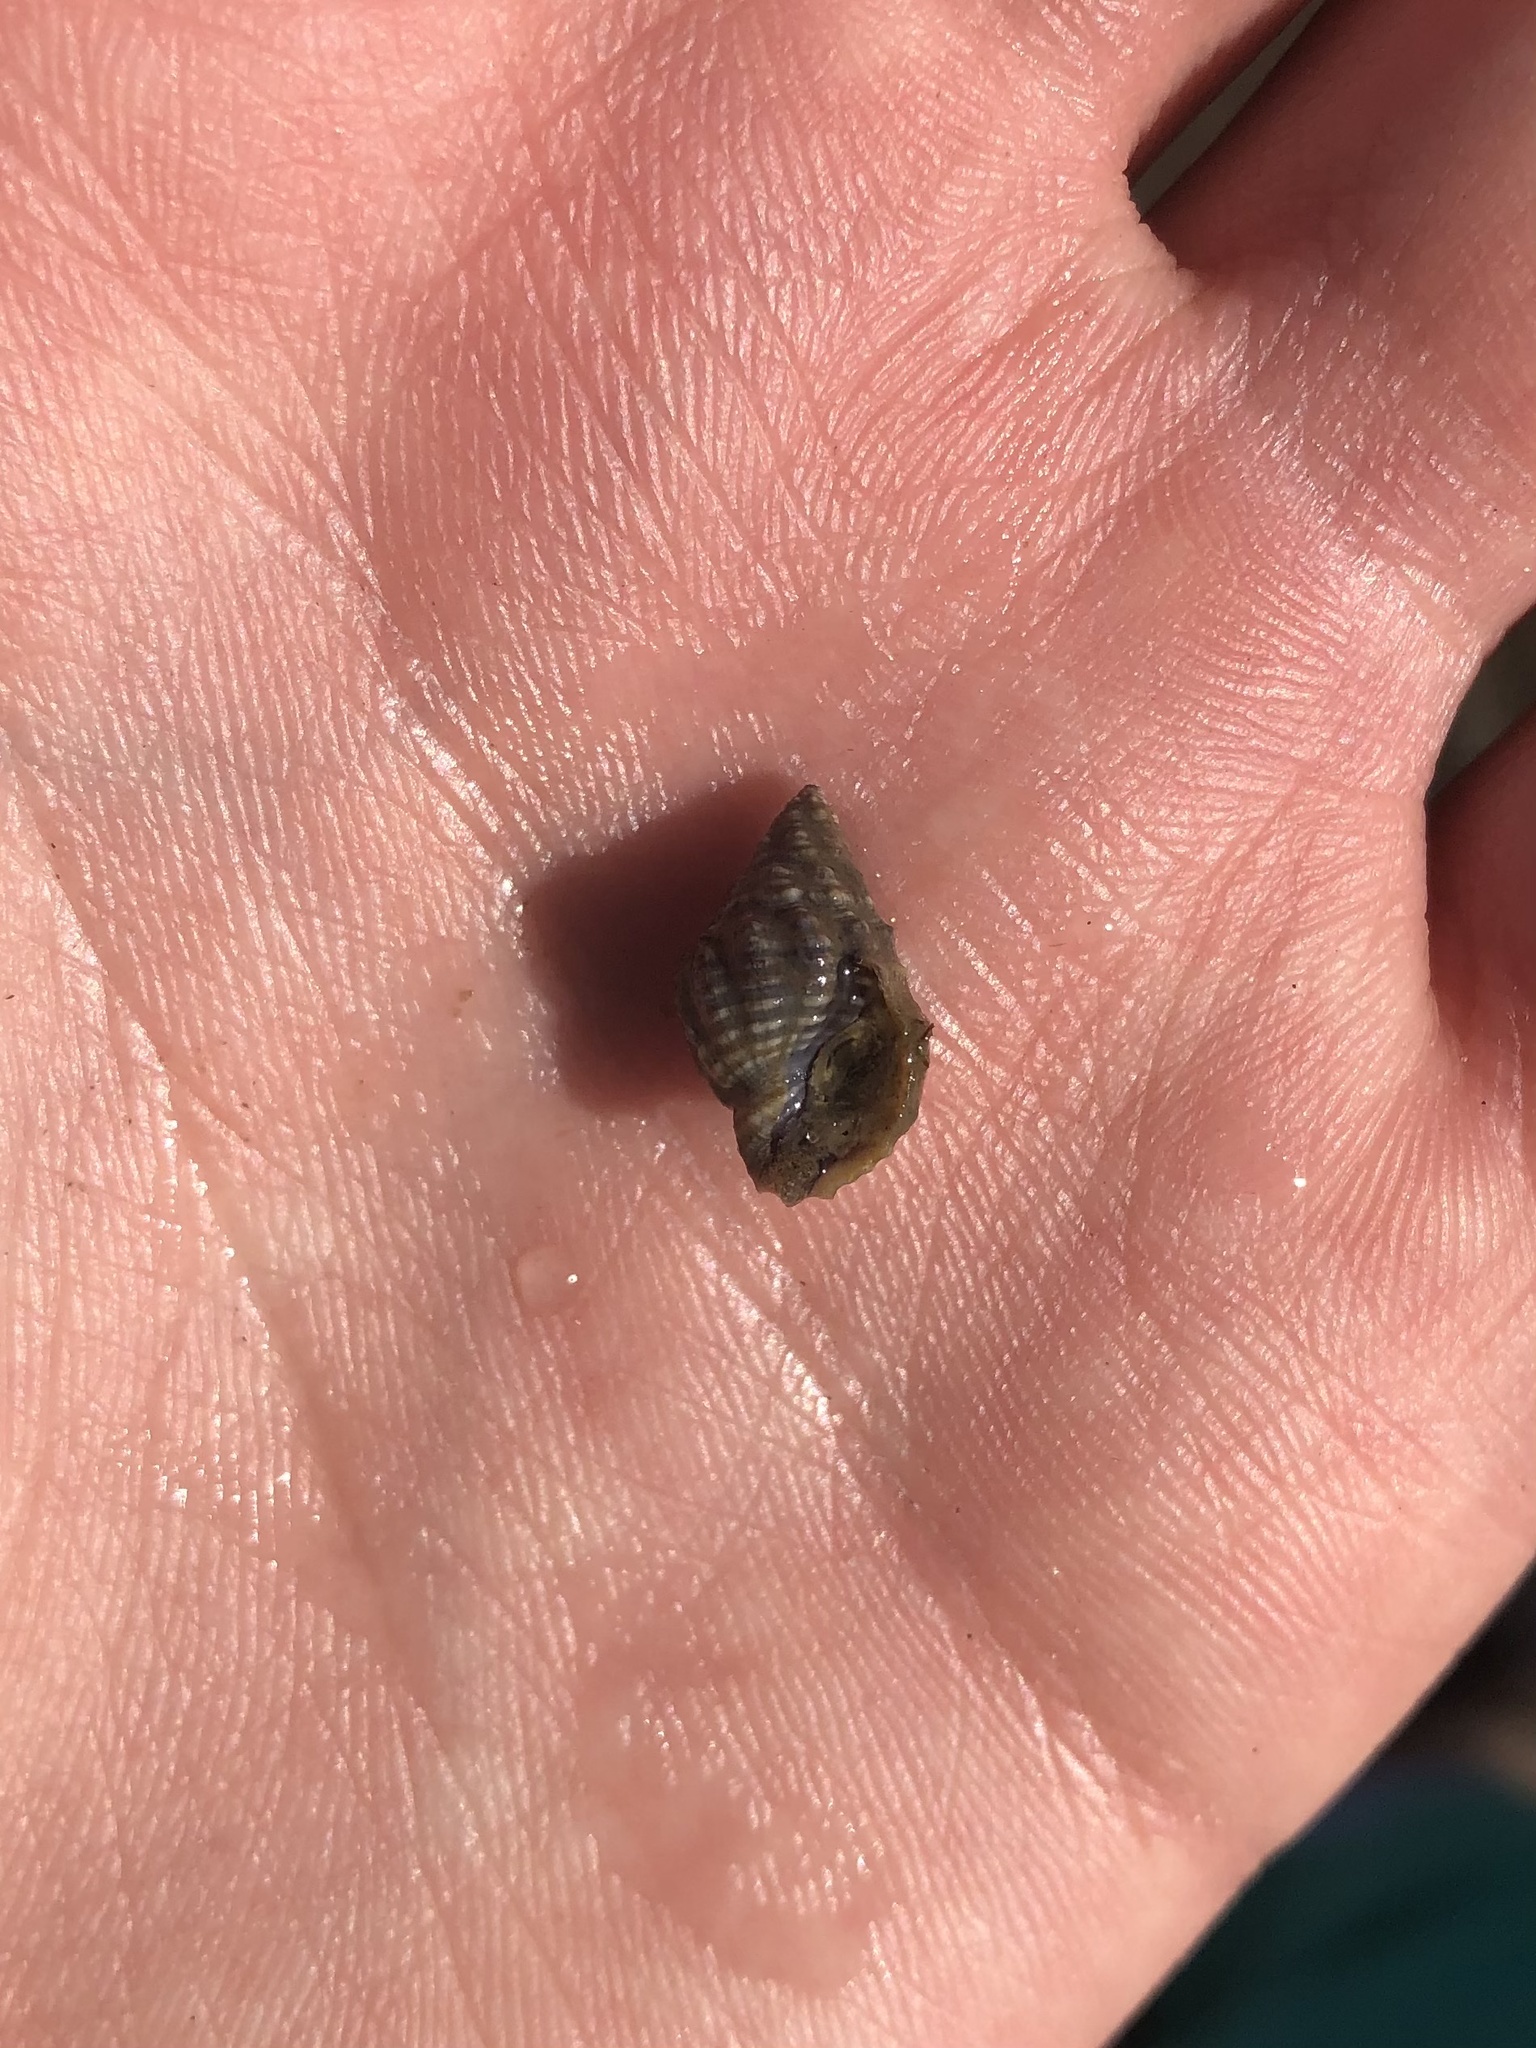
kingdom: Animalia
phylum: Mollusca
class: Gastropoda
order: Neogastropoda
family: Nassariidae
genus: Phrontis
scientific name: Phrontis vibex
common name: Bruised nassa
